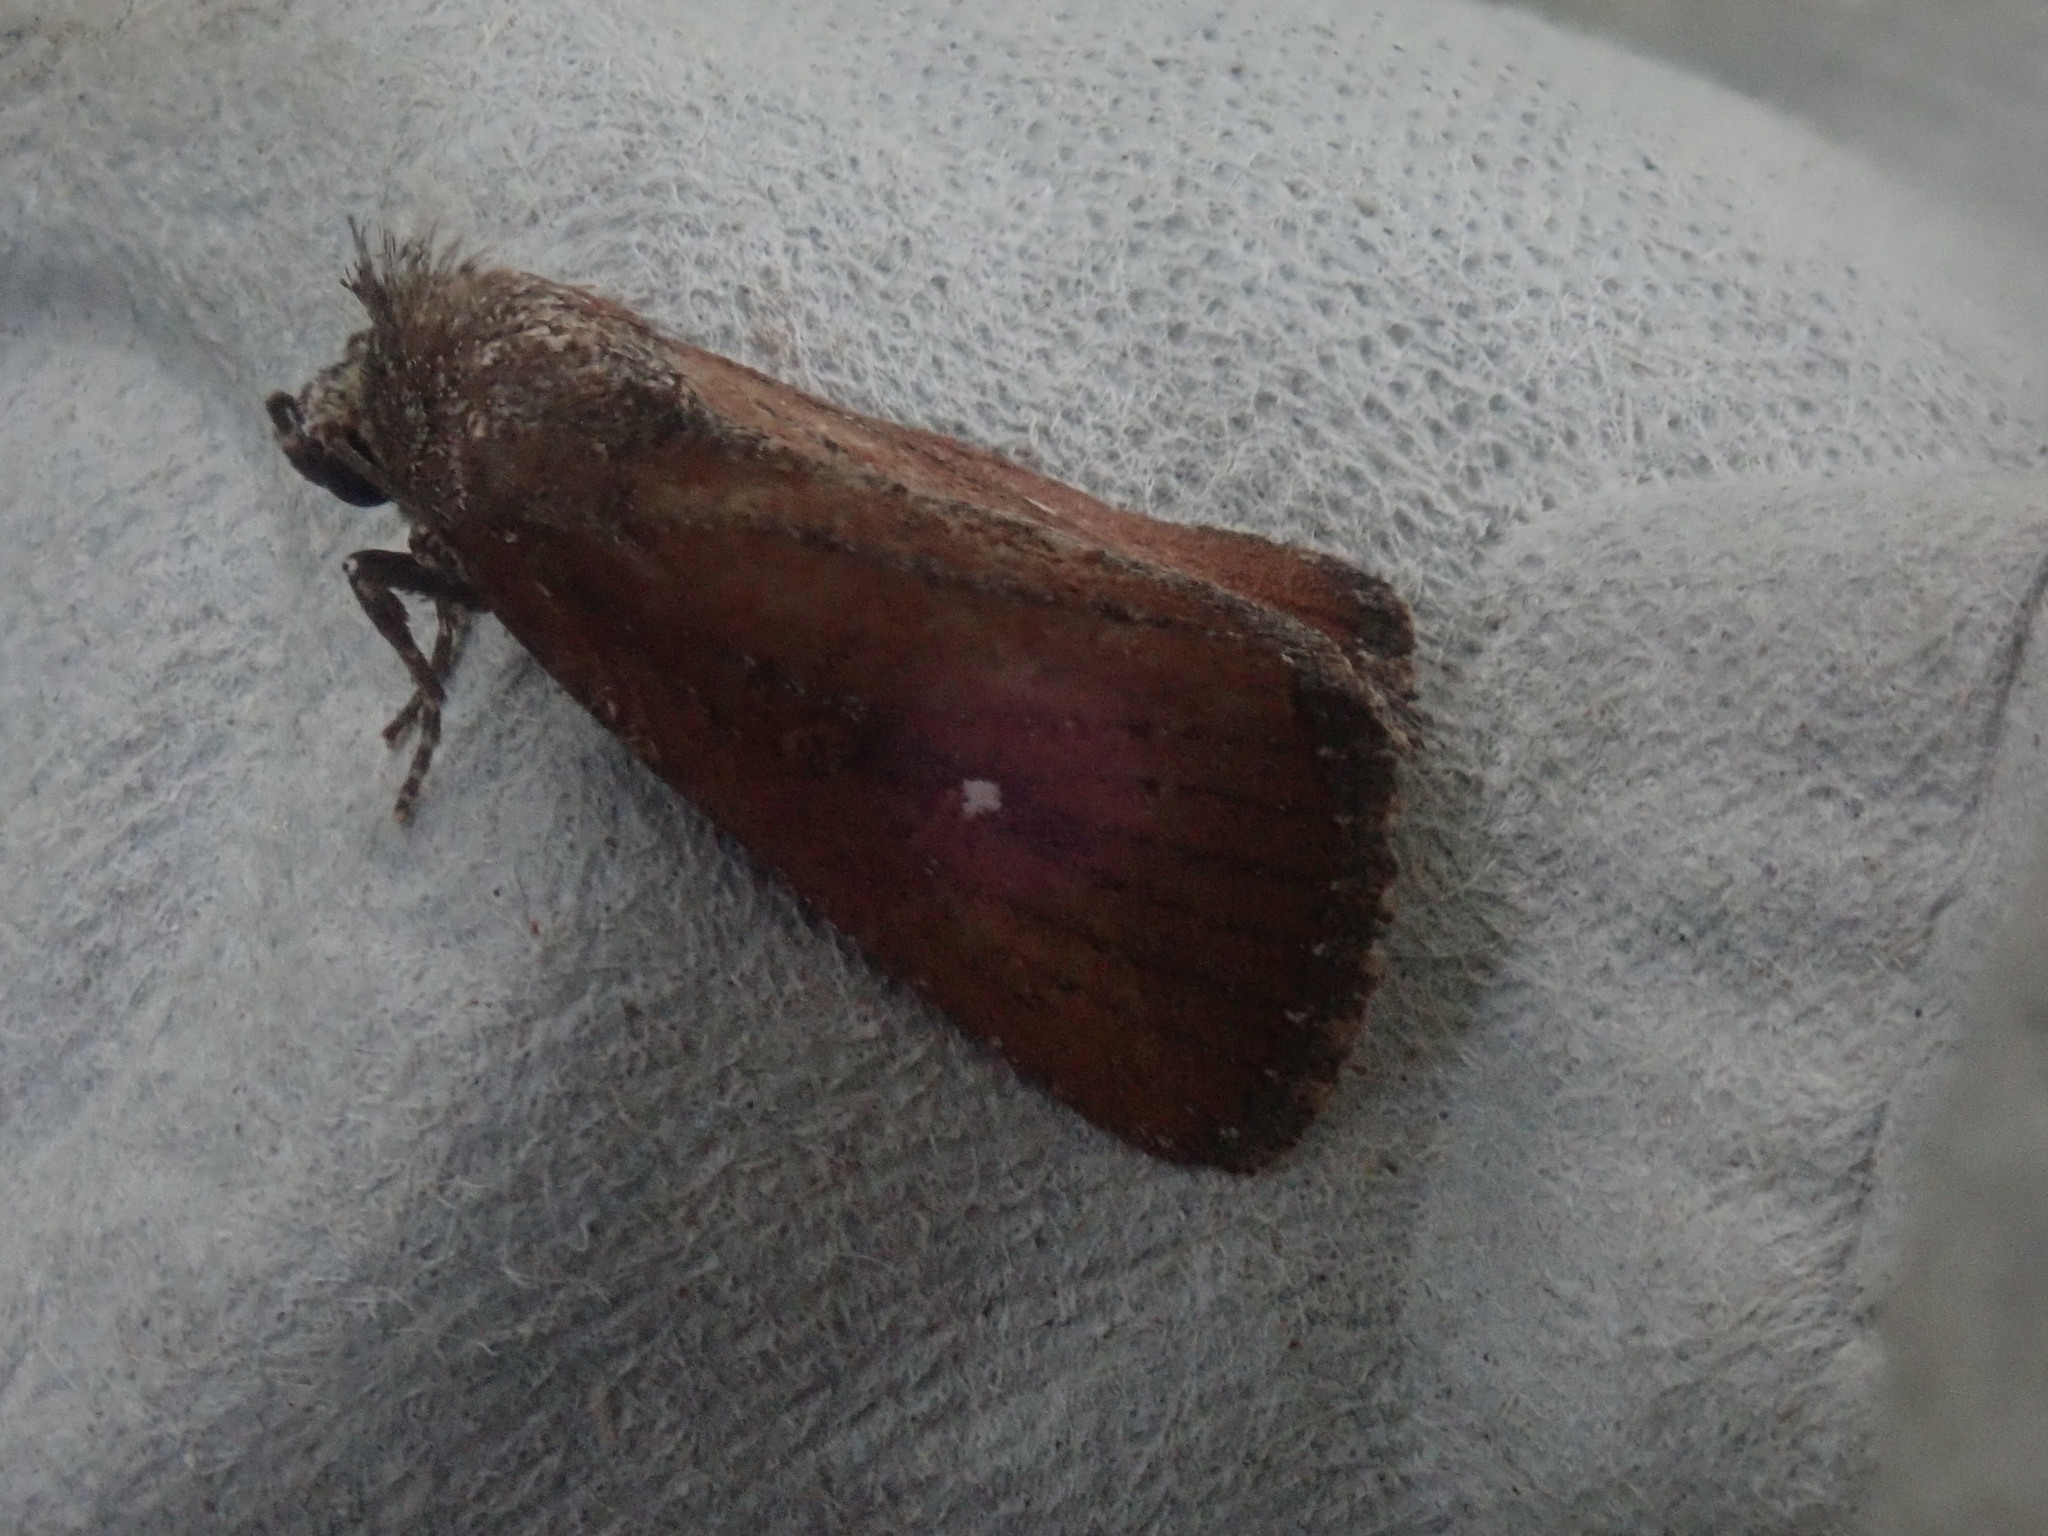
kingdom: Animalia
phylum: Arthropoda
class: Insecta
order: Lepidoptera
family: Noctuidae
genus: Condica
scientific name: Condica videns
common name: White-dotted groundling
